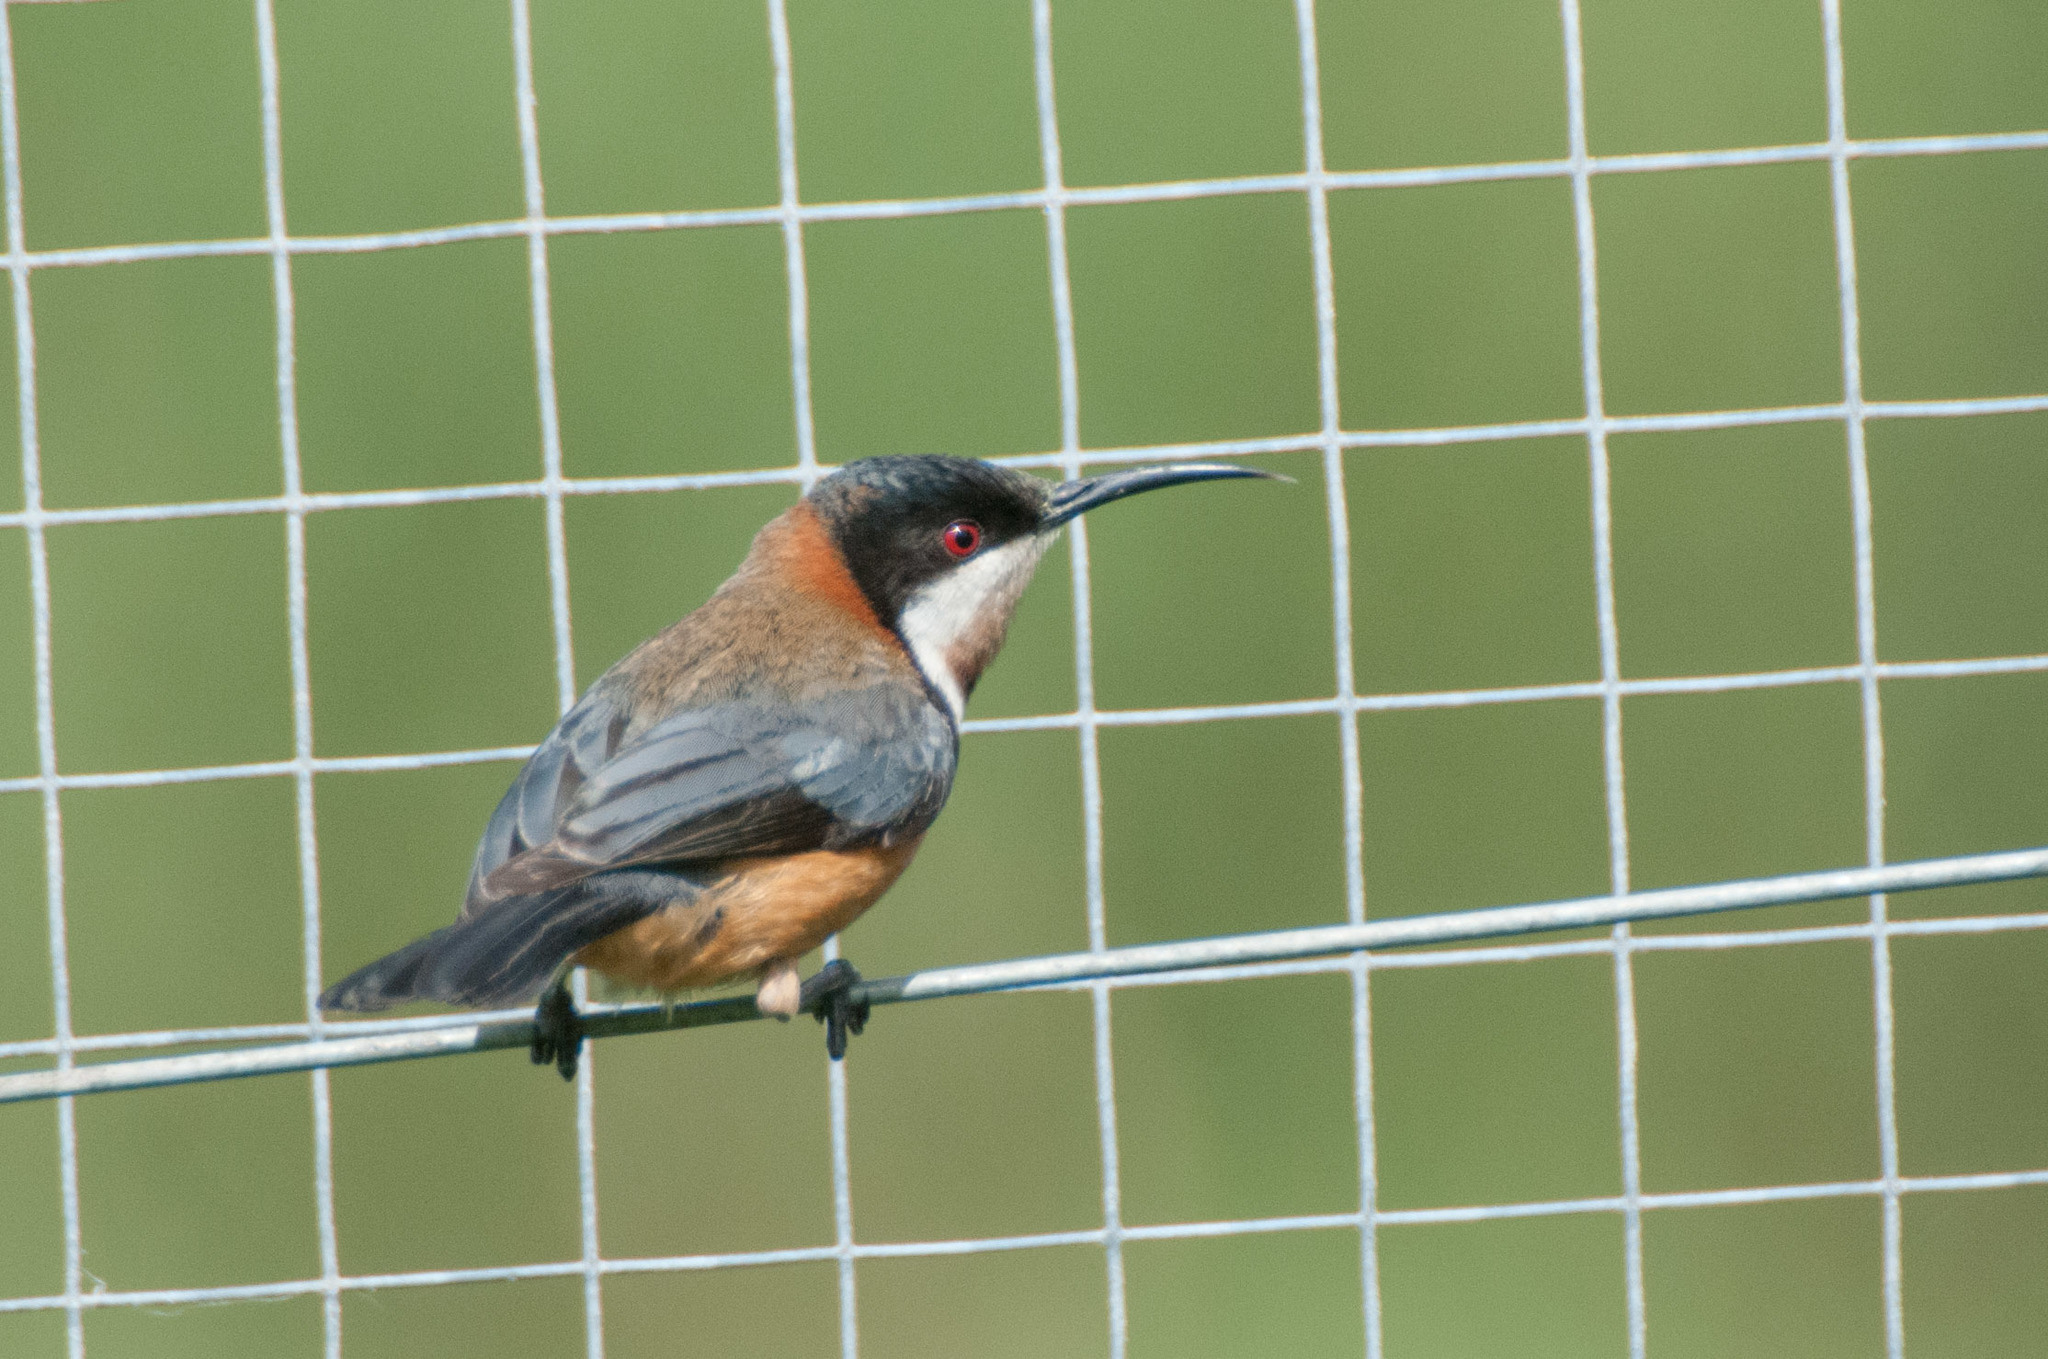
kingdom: Animalia
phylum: Chordata
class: Aves
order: Passeriformes
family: Meliphagidae
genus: Acanthorhynchus
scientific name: Acanthorhynchus tenuirostris
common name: Eastern spinebill
